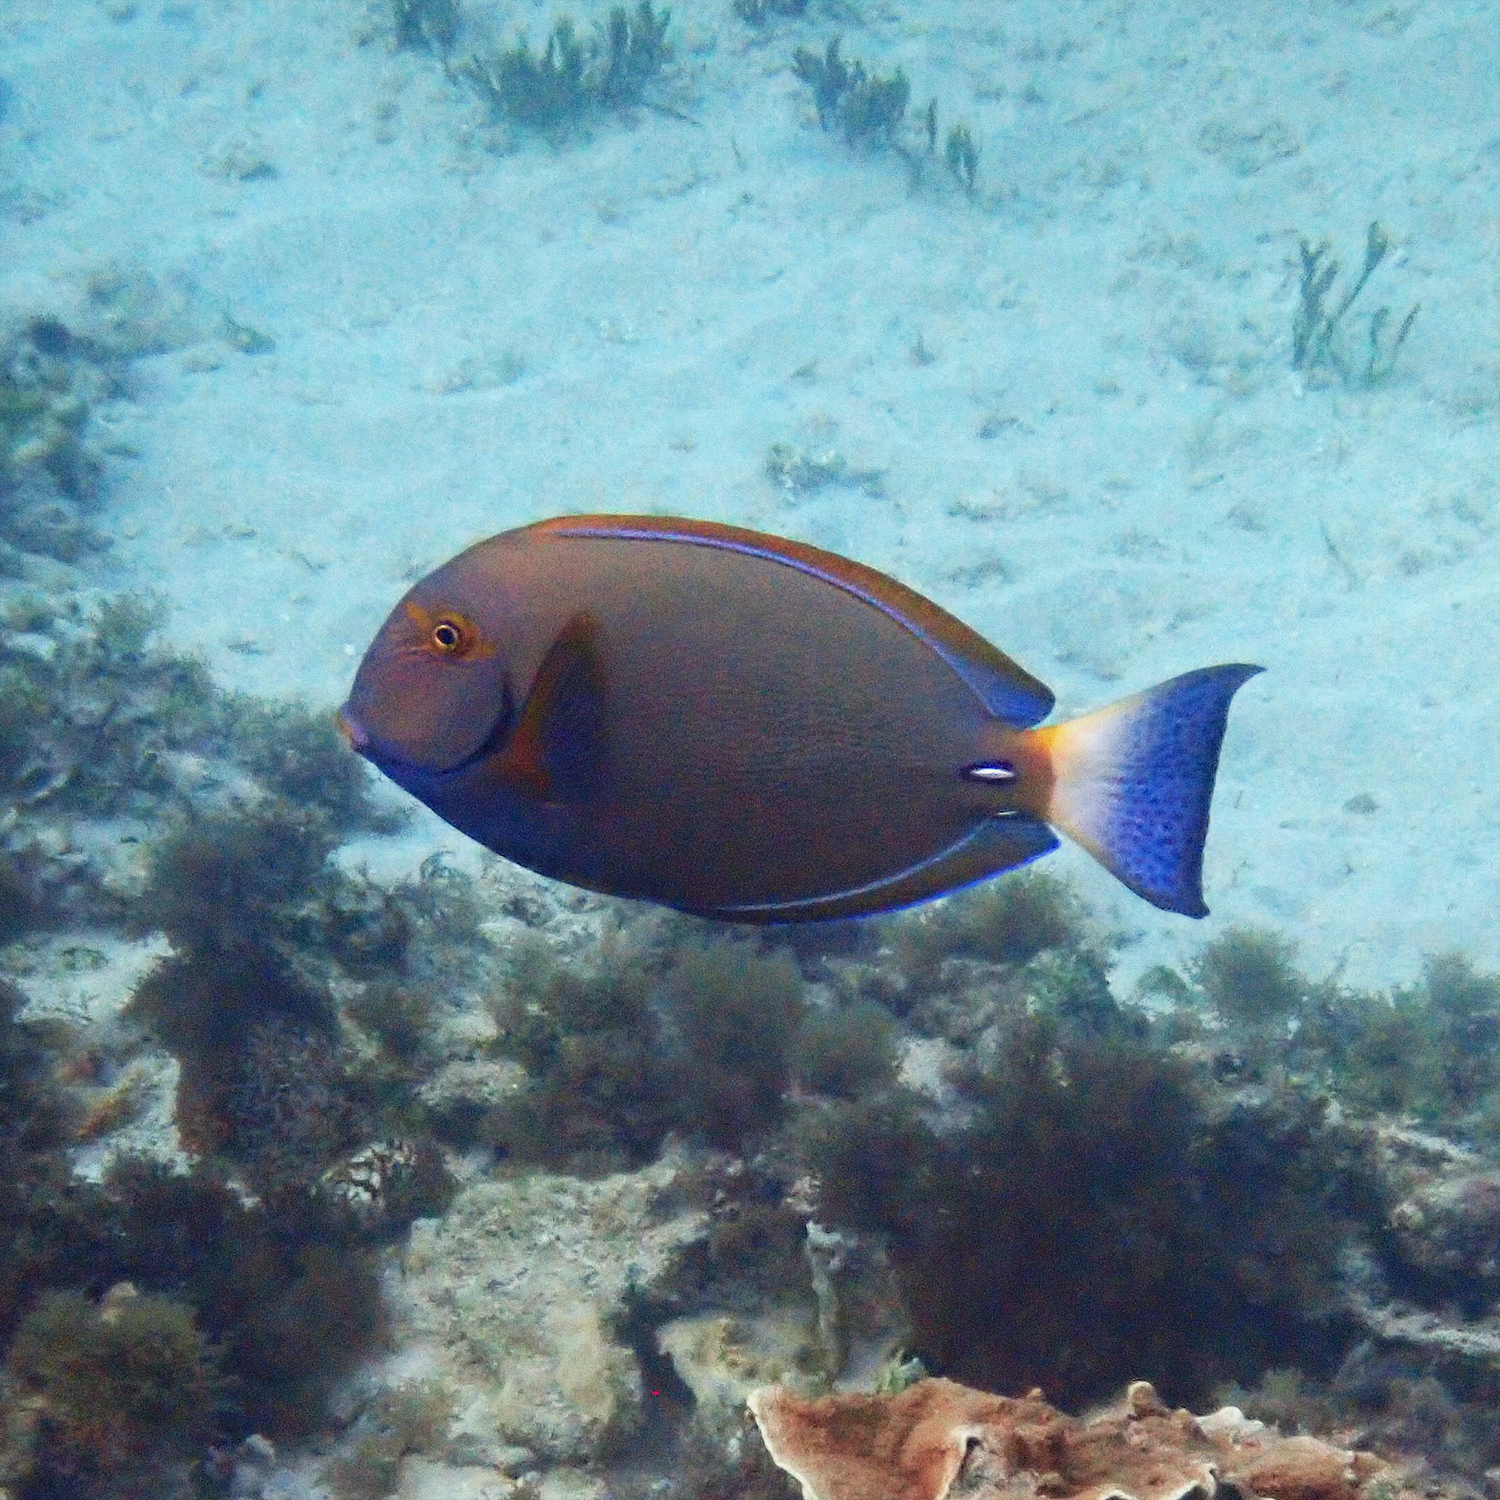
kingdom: Animalia
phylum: Chordata
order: Perciformes
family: Acanthuridae
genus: Acanthurus
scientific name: Acanthurus dussumieri
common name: Dussumier's surgeonfish
